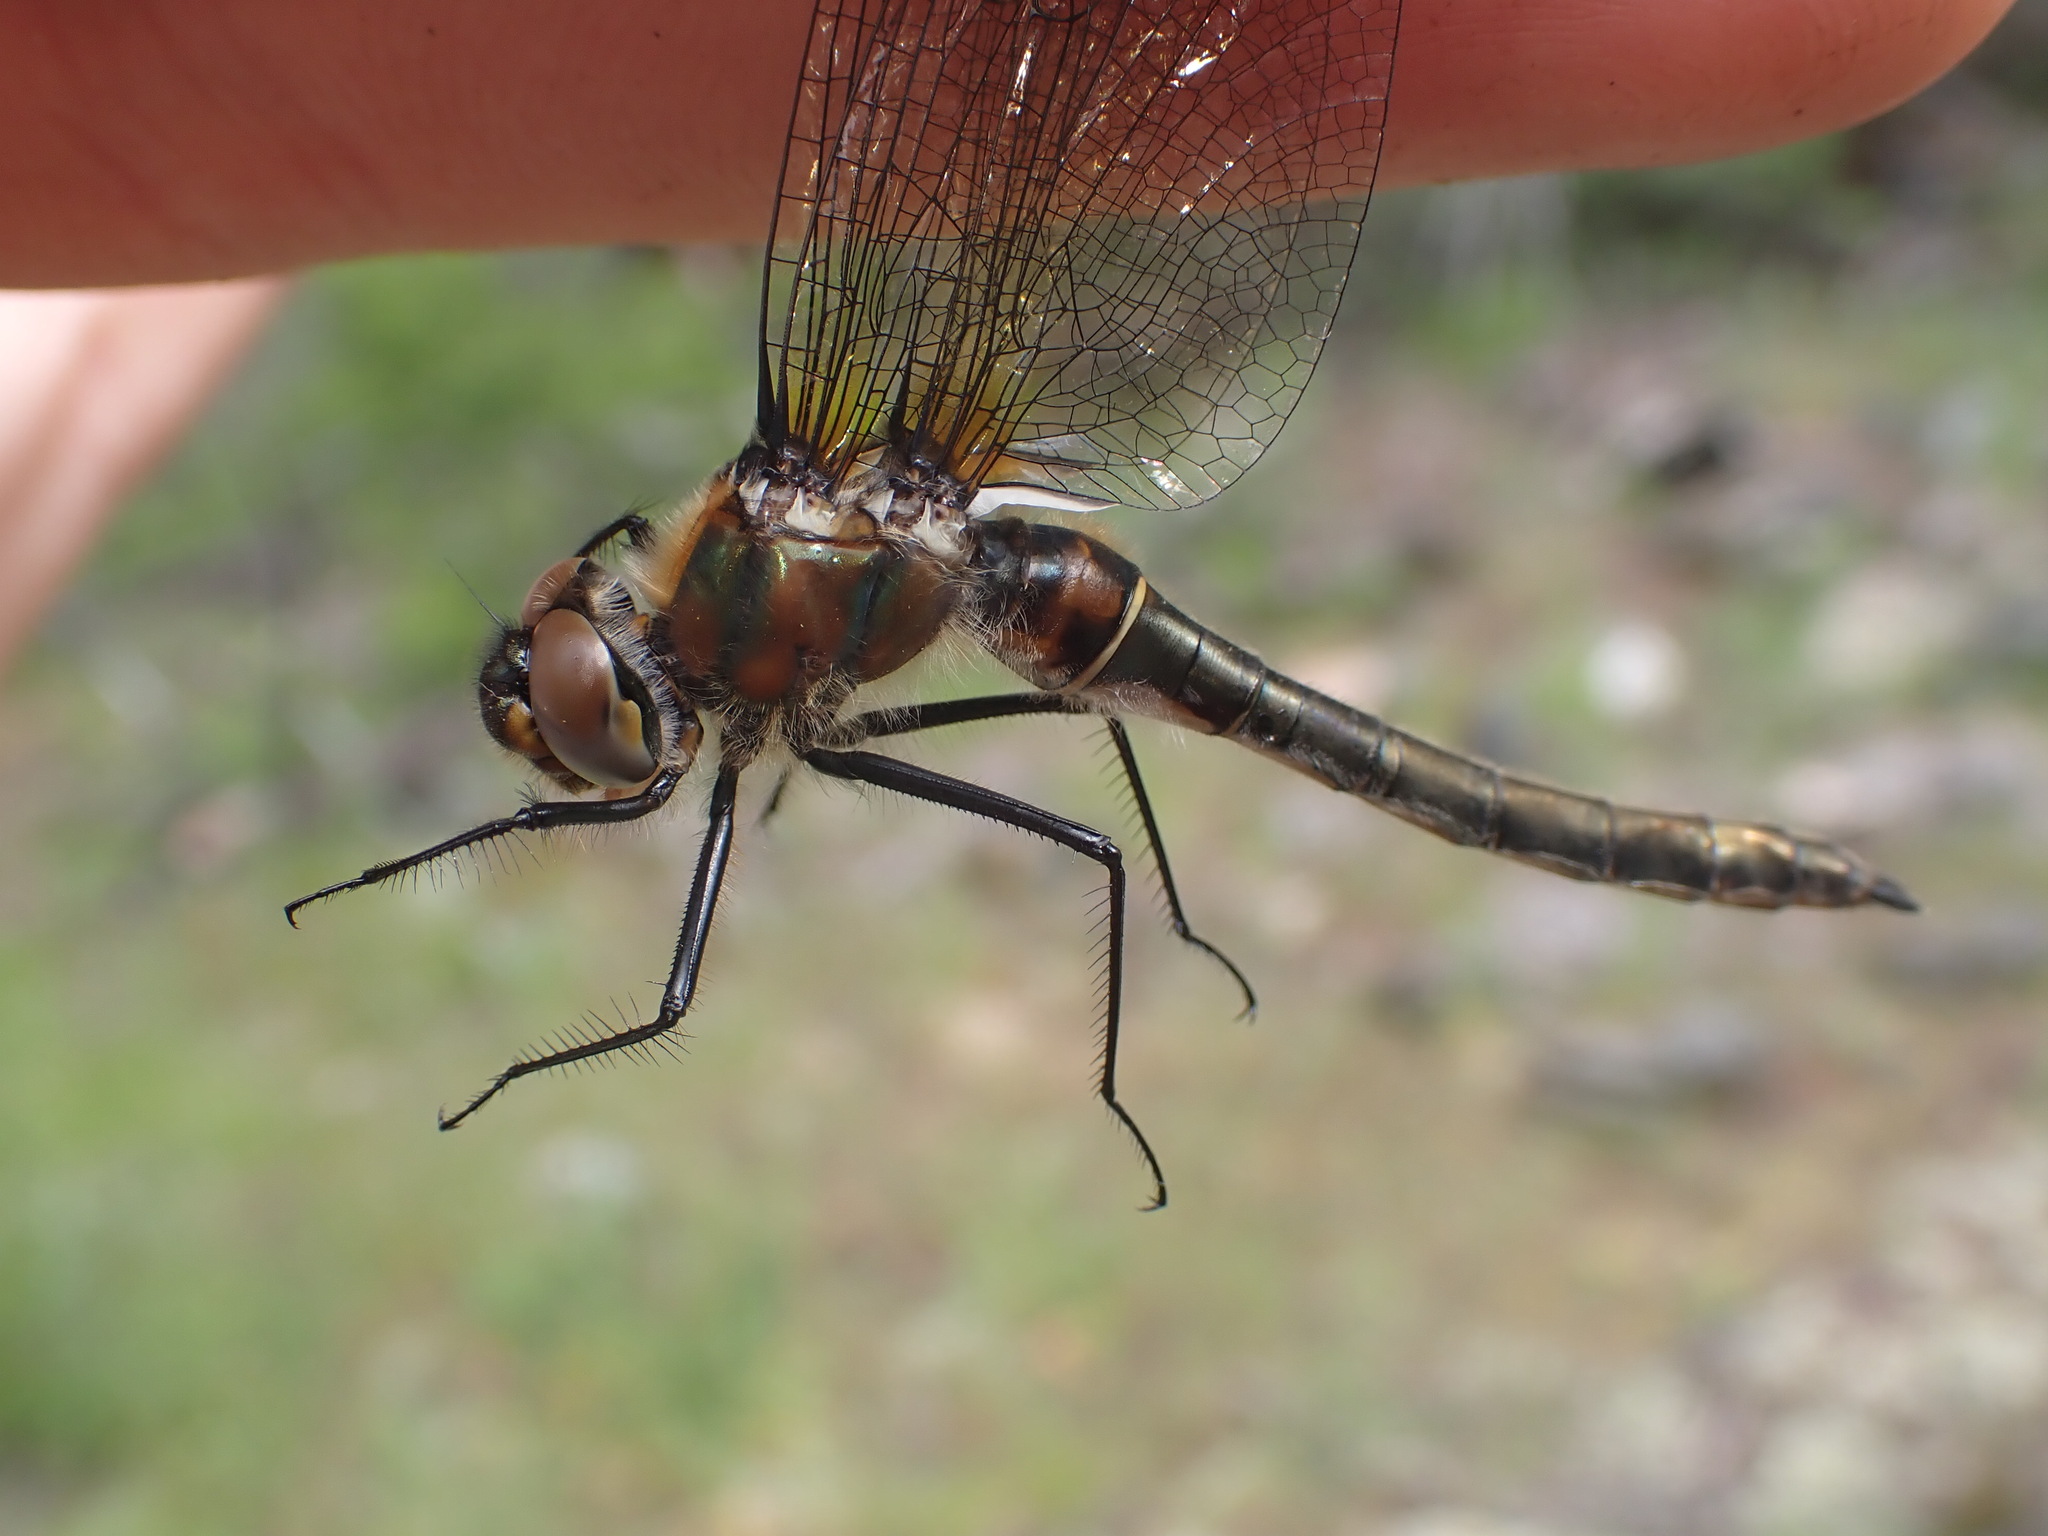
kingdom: Animalia
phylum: Arthropoda
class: Insecta
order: Odonata
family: Corduliidae
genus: Cordulia
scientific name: Cordulia shurtleffii
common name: American emerald
